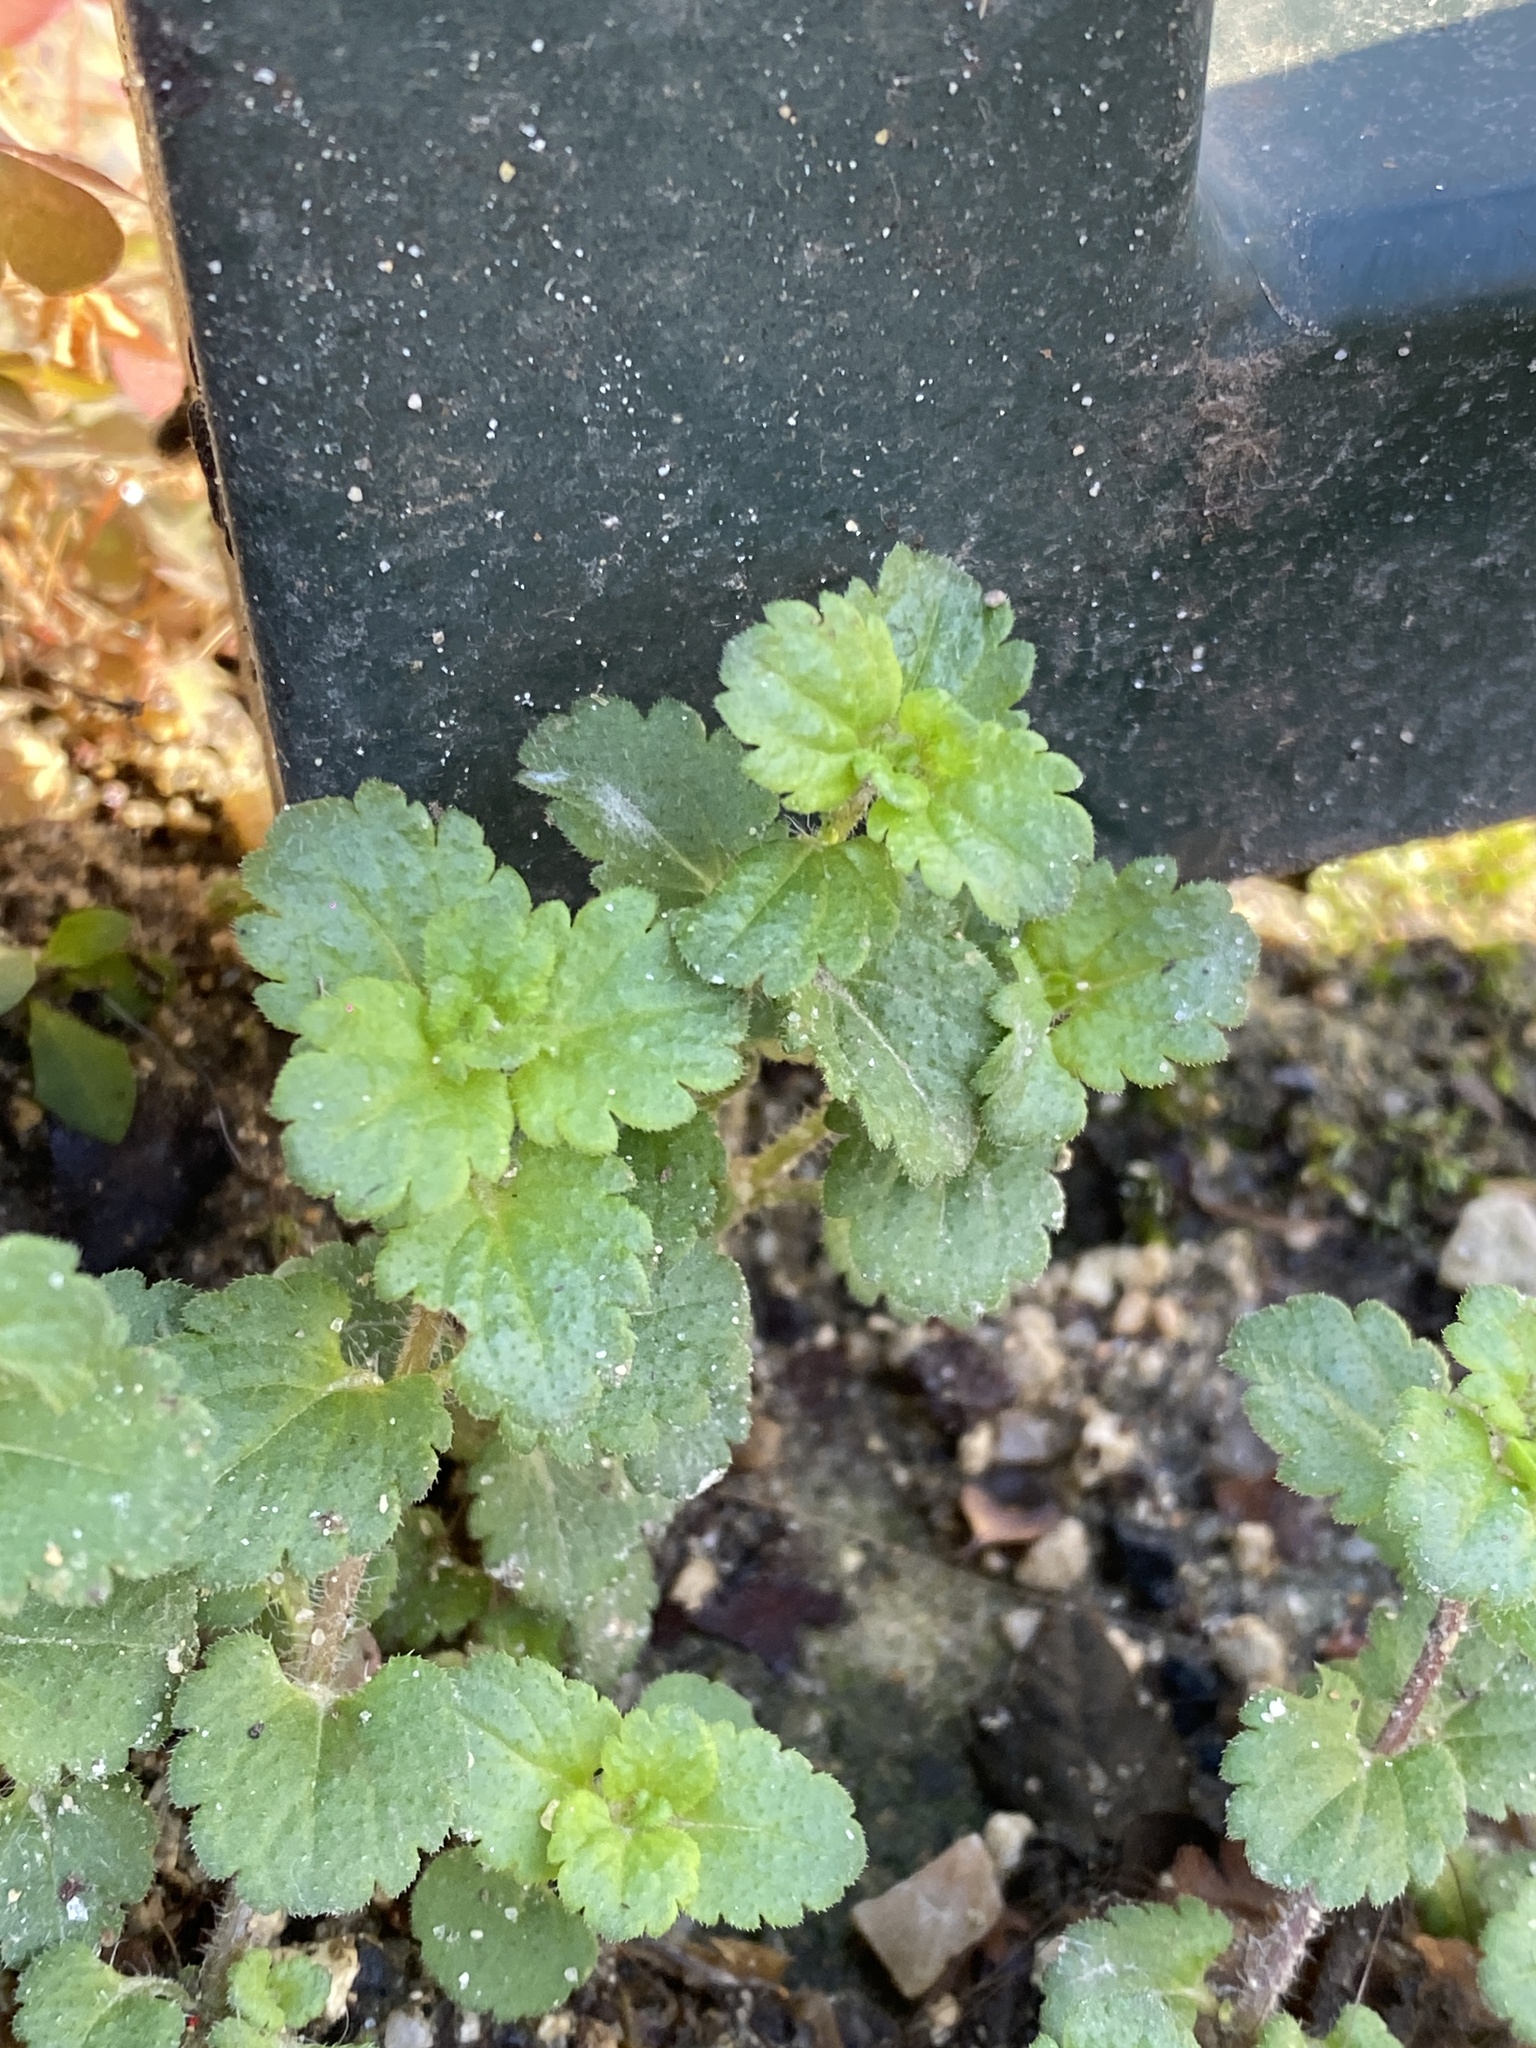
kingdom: Plantae
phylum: Tracheophyta
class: Magnoliopsida
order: Lamiales
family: Plantaginaceae
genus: Veronica
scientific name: Veronica persica
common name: Common field-speedwell
